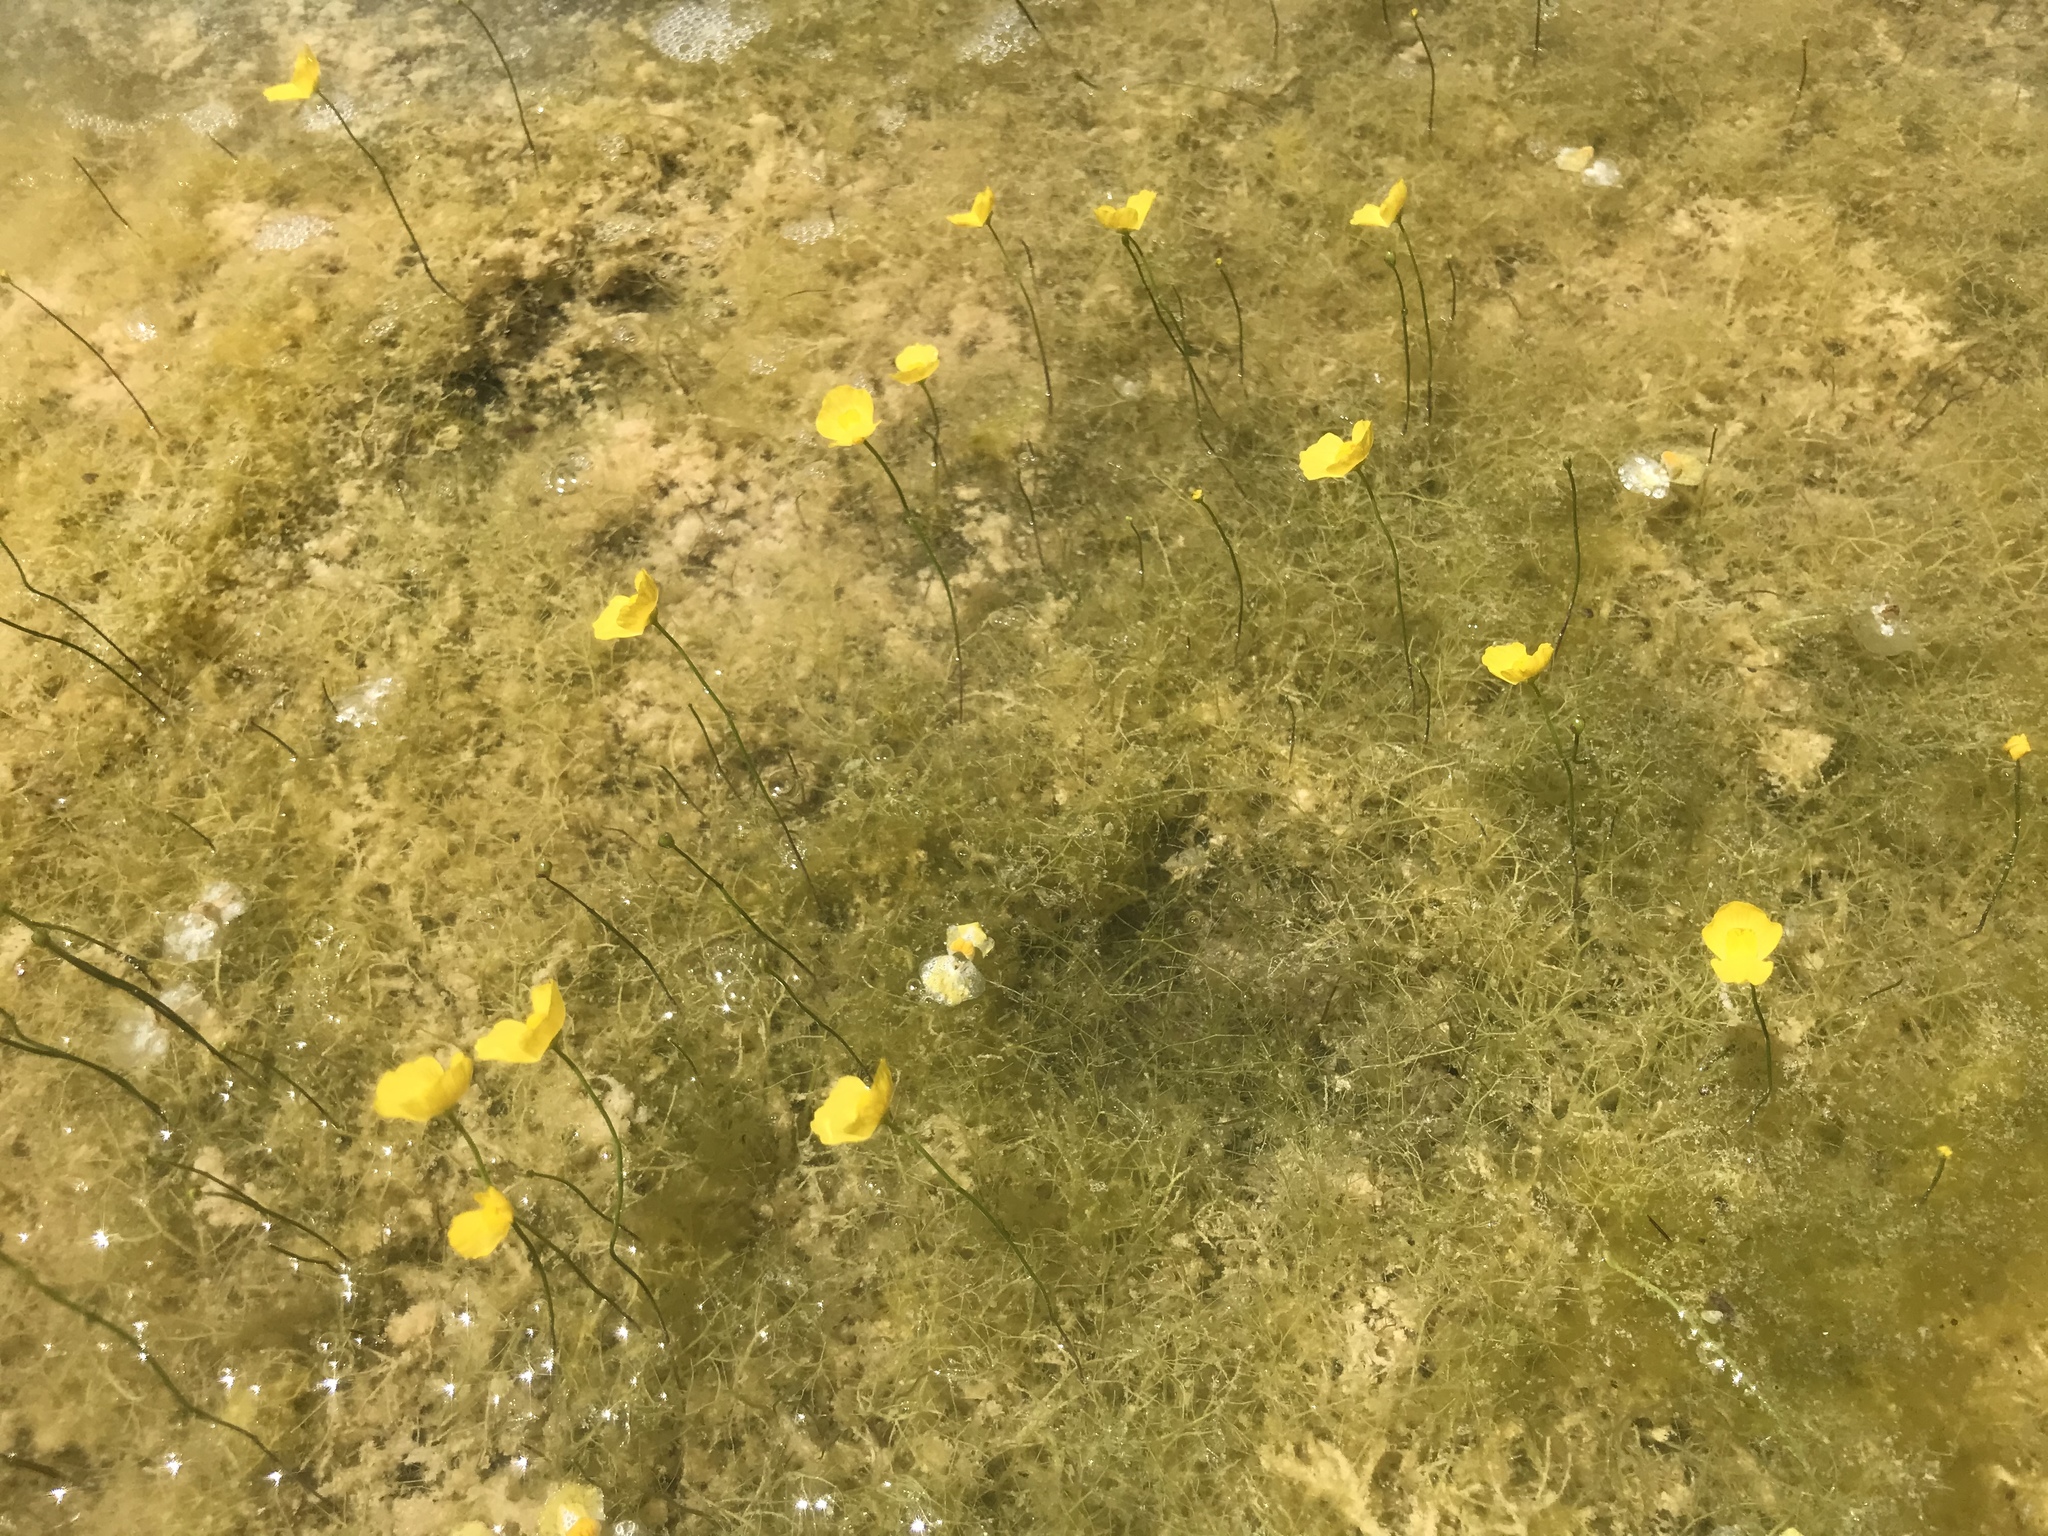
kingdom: Plantae
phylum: Tracheophyta
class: Magnoliopsida
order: Lamiales
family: Lentibulariaceae
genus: Utricularia
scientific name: Utricularia gibba
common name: Humped bladderwort
